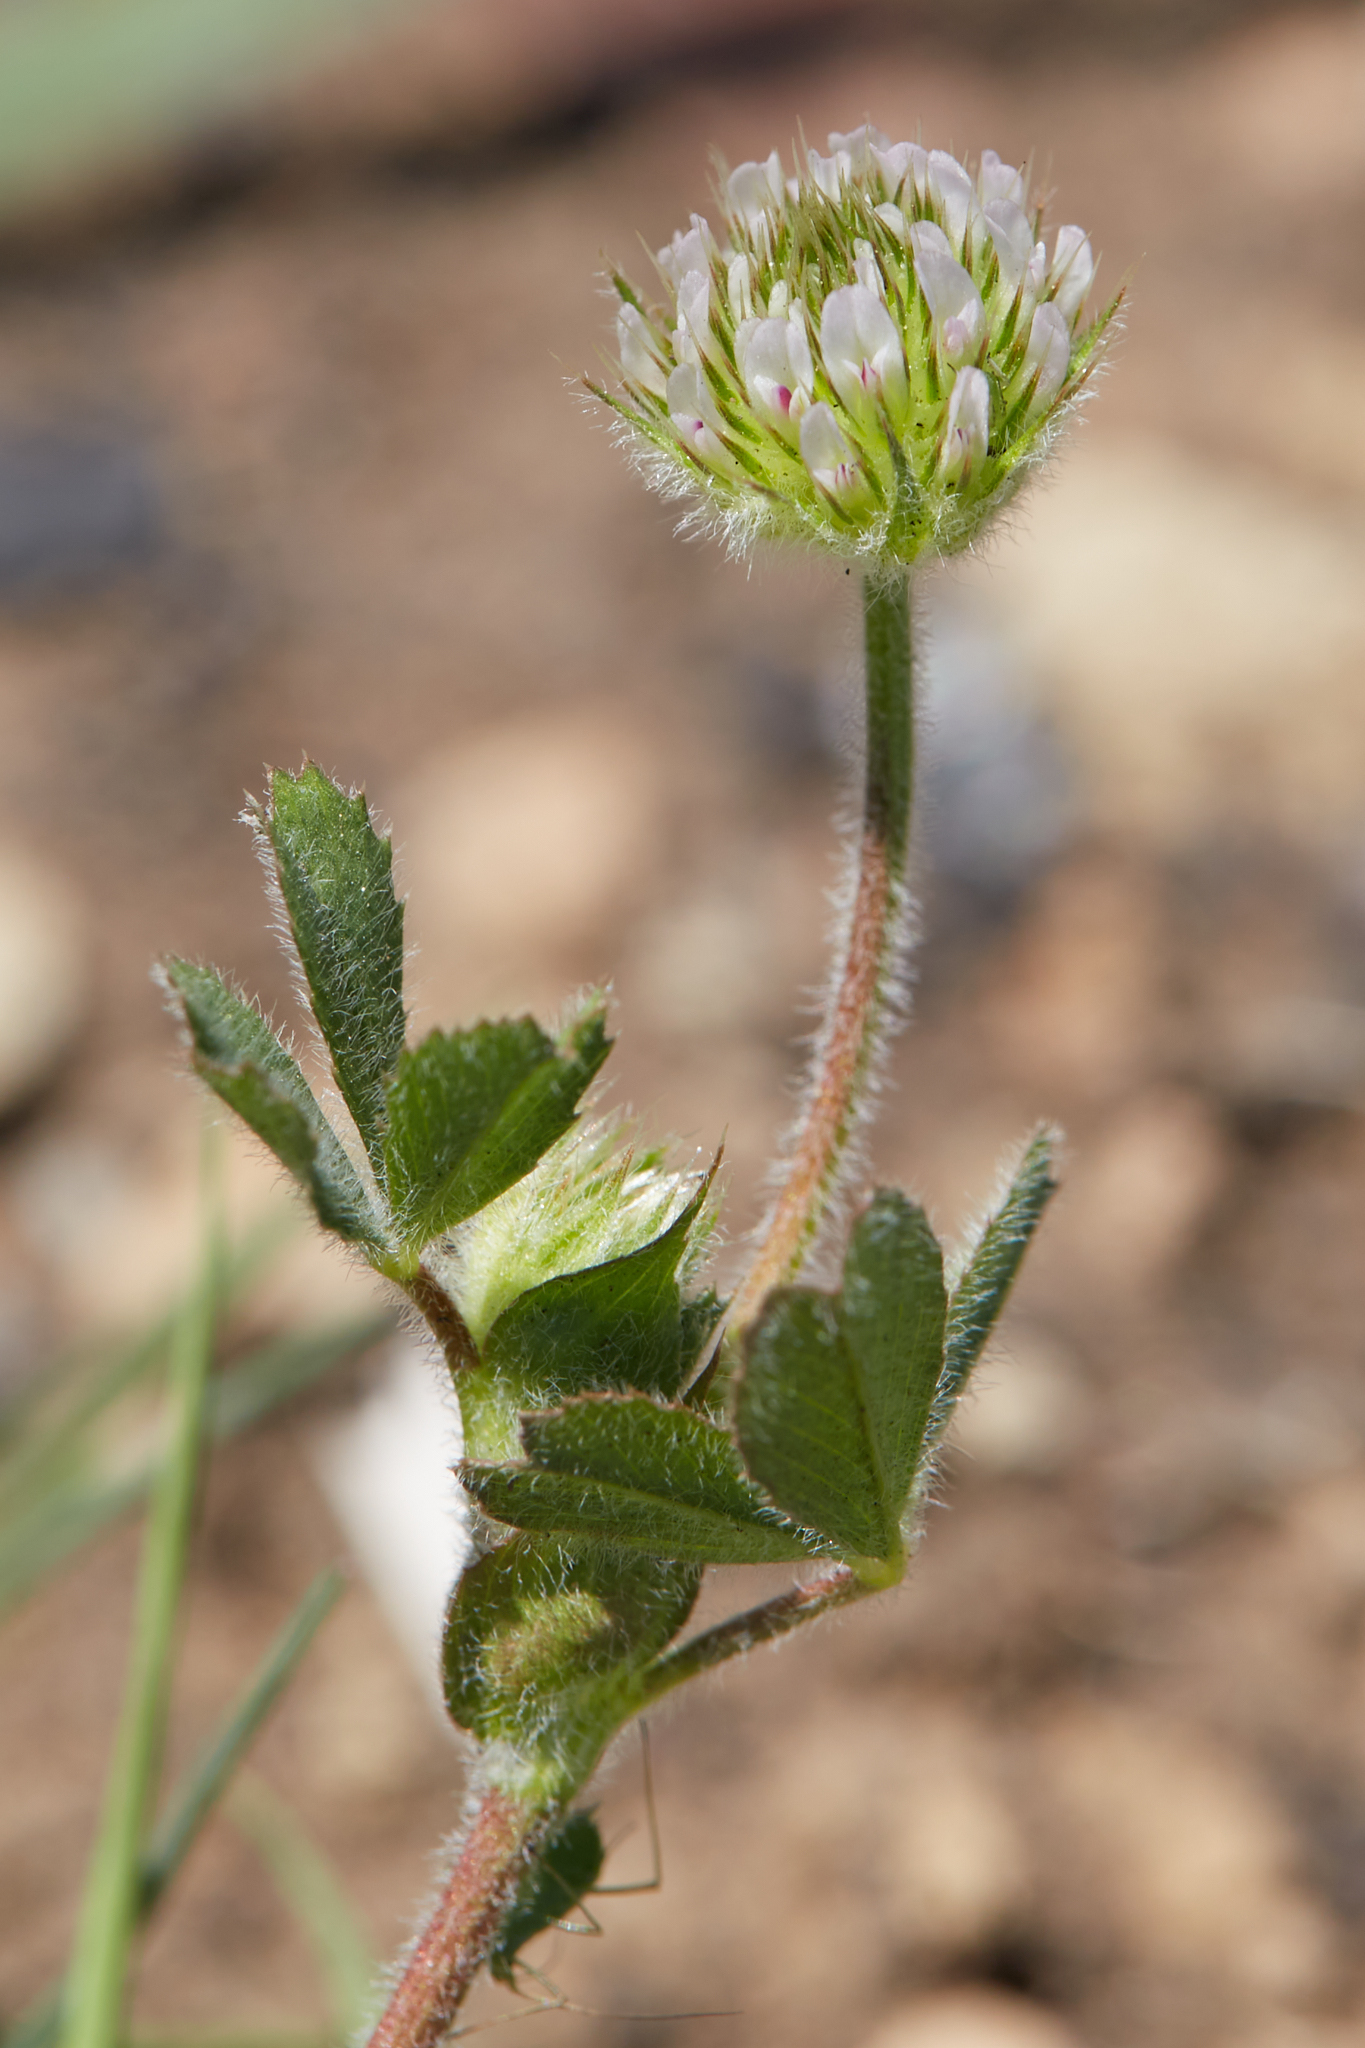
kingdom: Plantae
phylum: Tracheophyta
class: Magnoliopsida
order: Fabales
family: Fabaceae
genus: Trifolium
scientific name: Trifolium microcephalum
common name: Maiden clover
